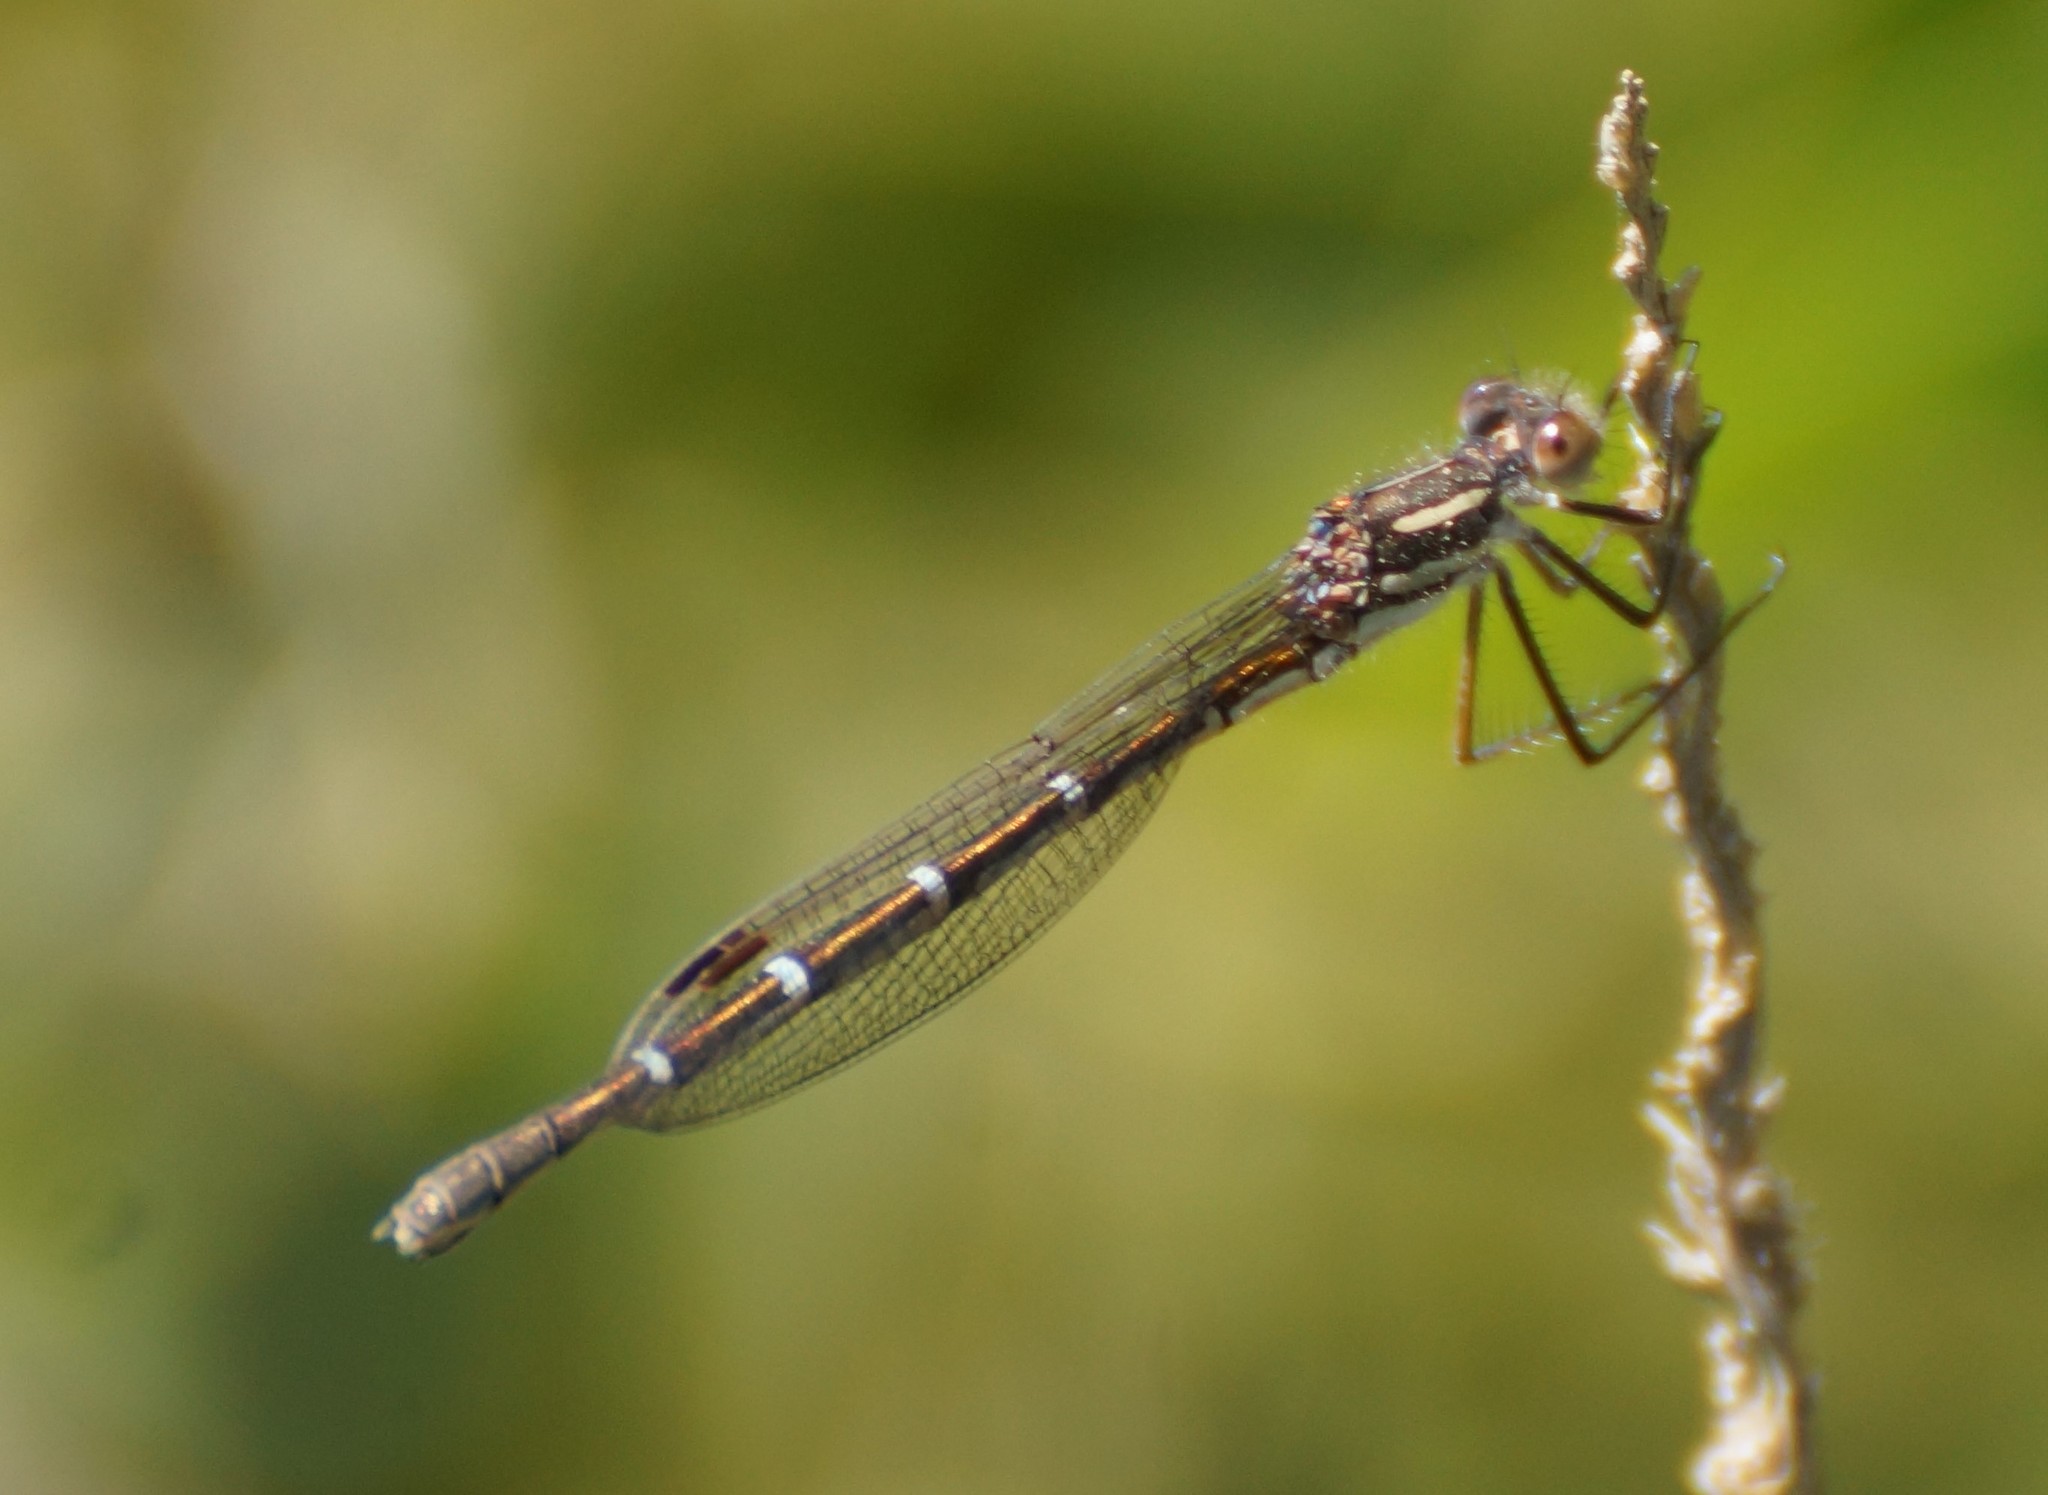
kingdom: Animalia
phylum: Arthropoda
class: Insecta
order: Odonata
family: Lestidae
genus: Austrolestes
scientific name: Austrolestes annulosus
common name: Blue ringtail
